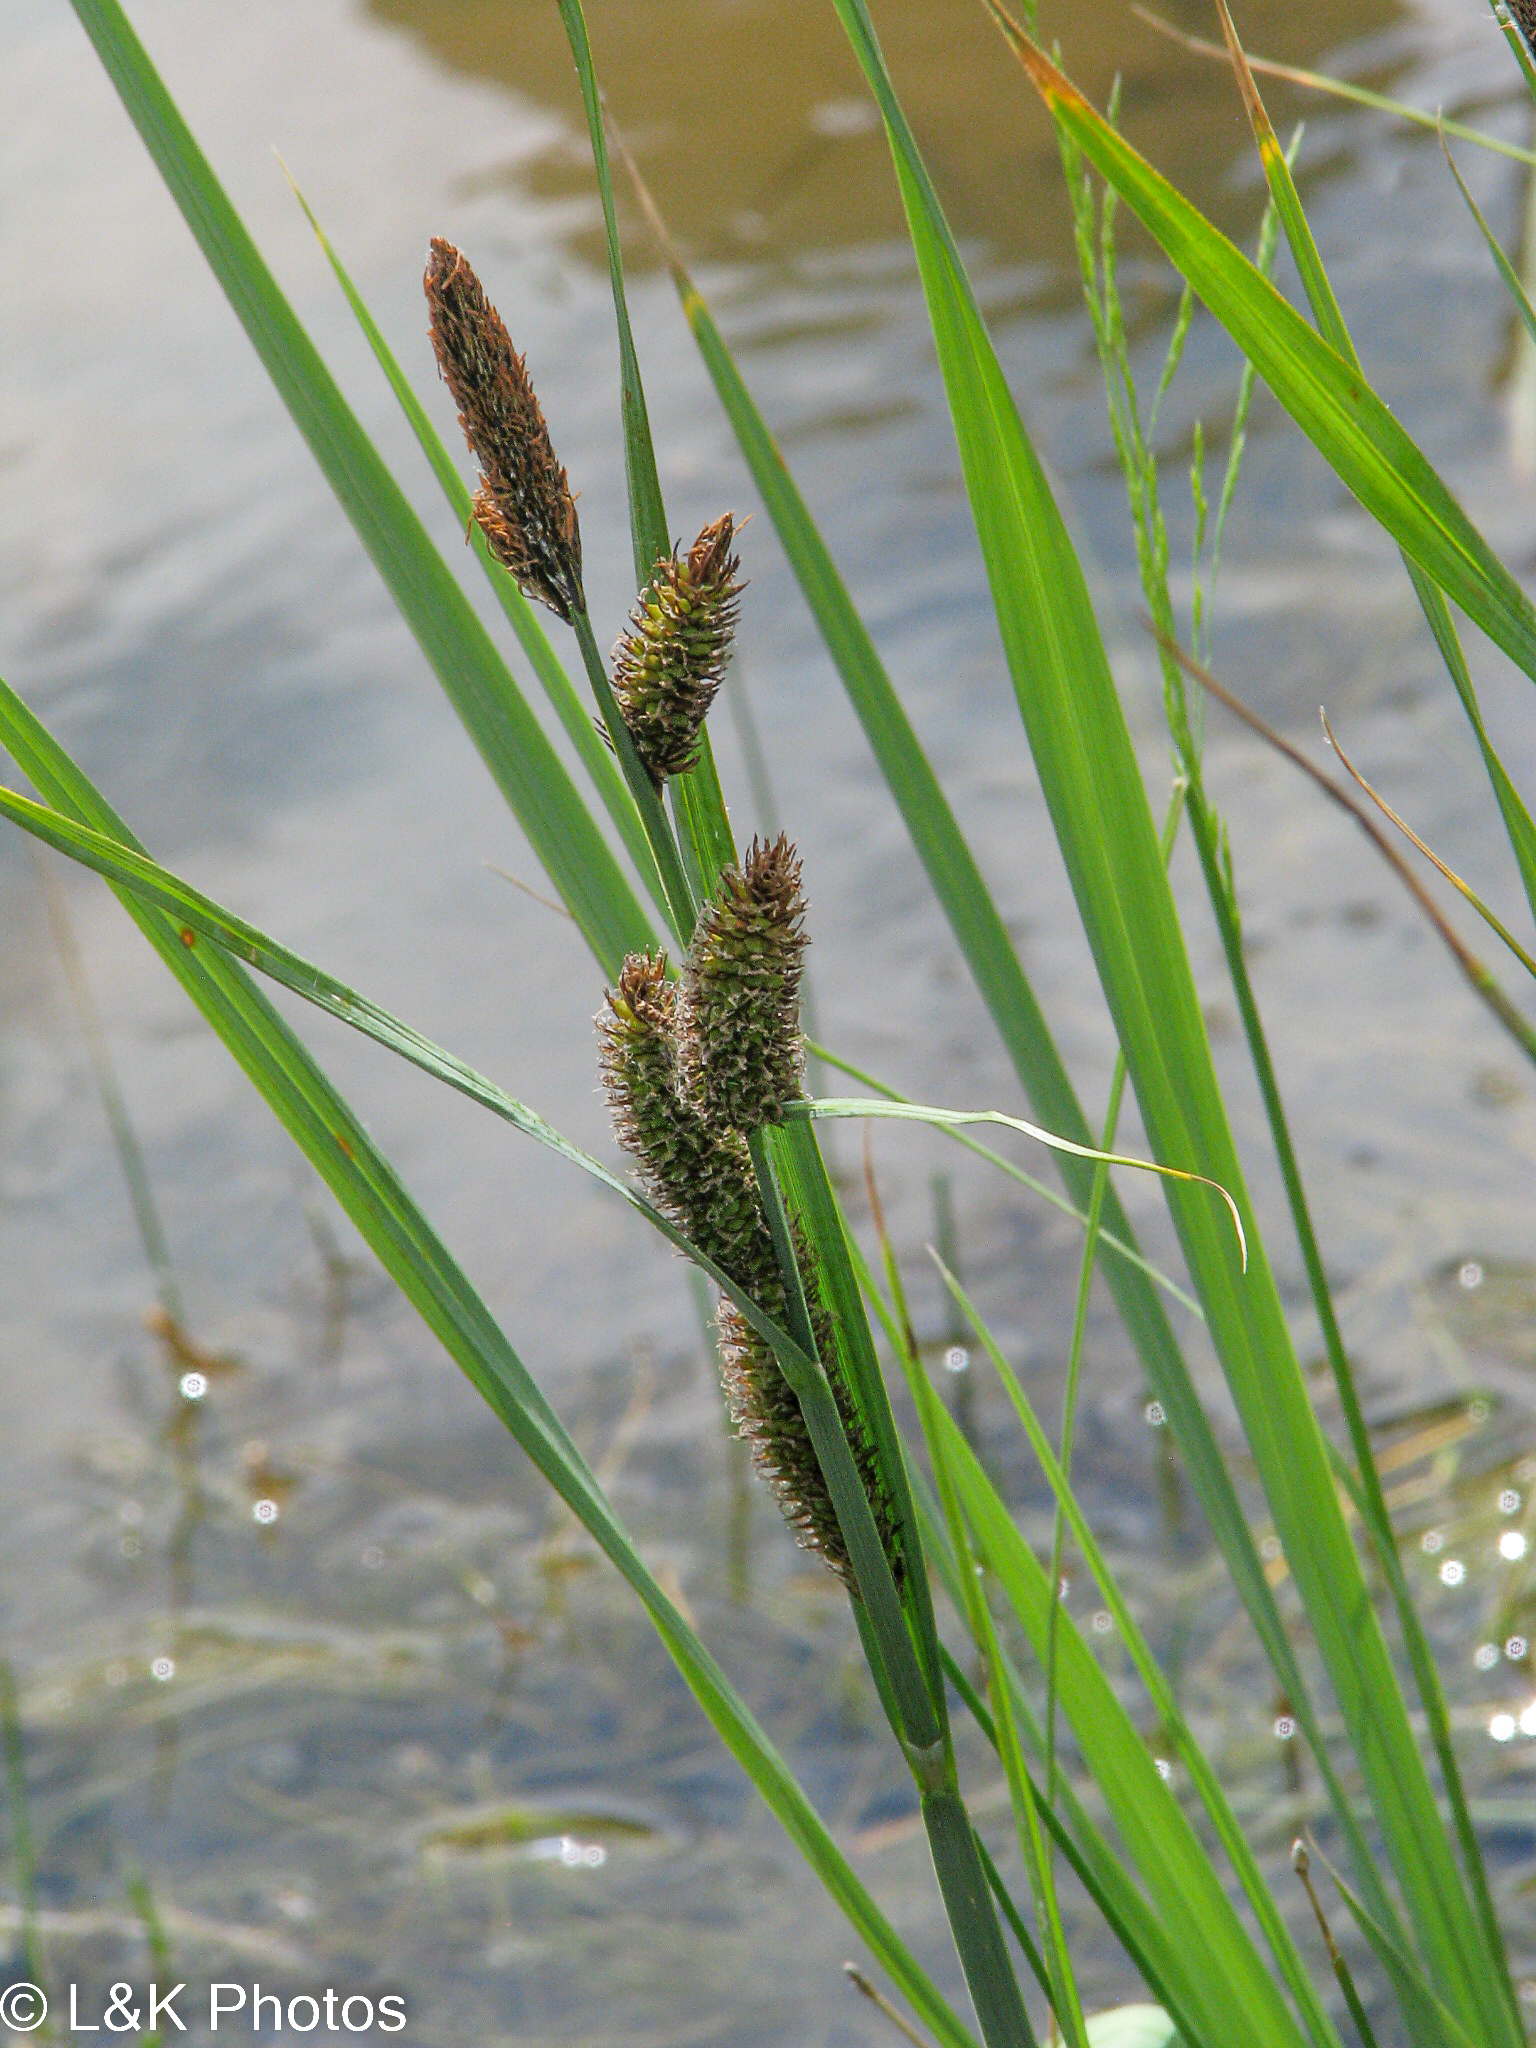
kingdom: Plantae
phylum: Tracheophyta
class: Liliopsida
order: Poales
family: Cyperaceae
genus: Carex
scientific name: Carex nebrascensis
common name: Nebraska sedge
